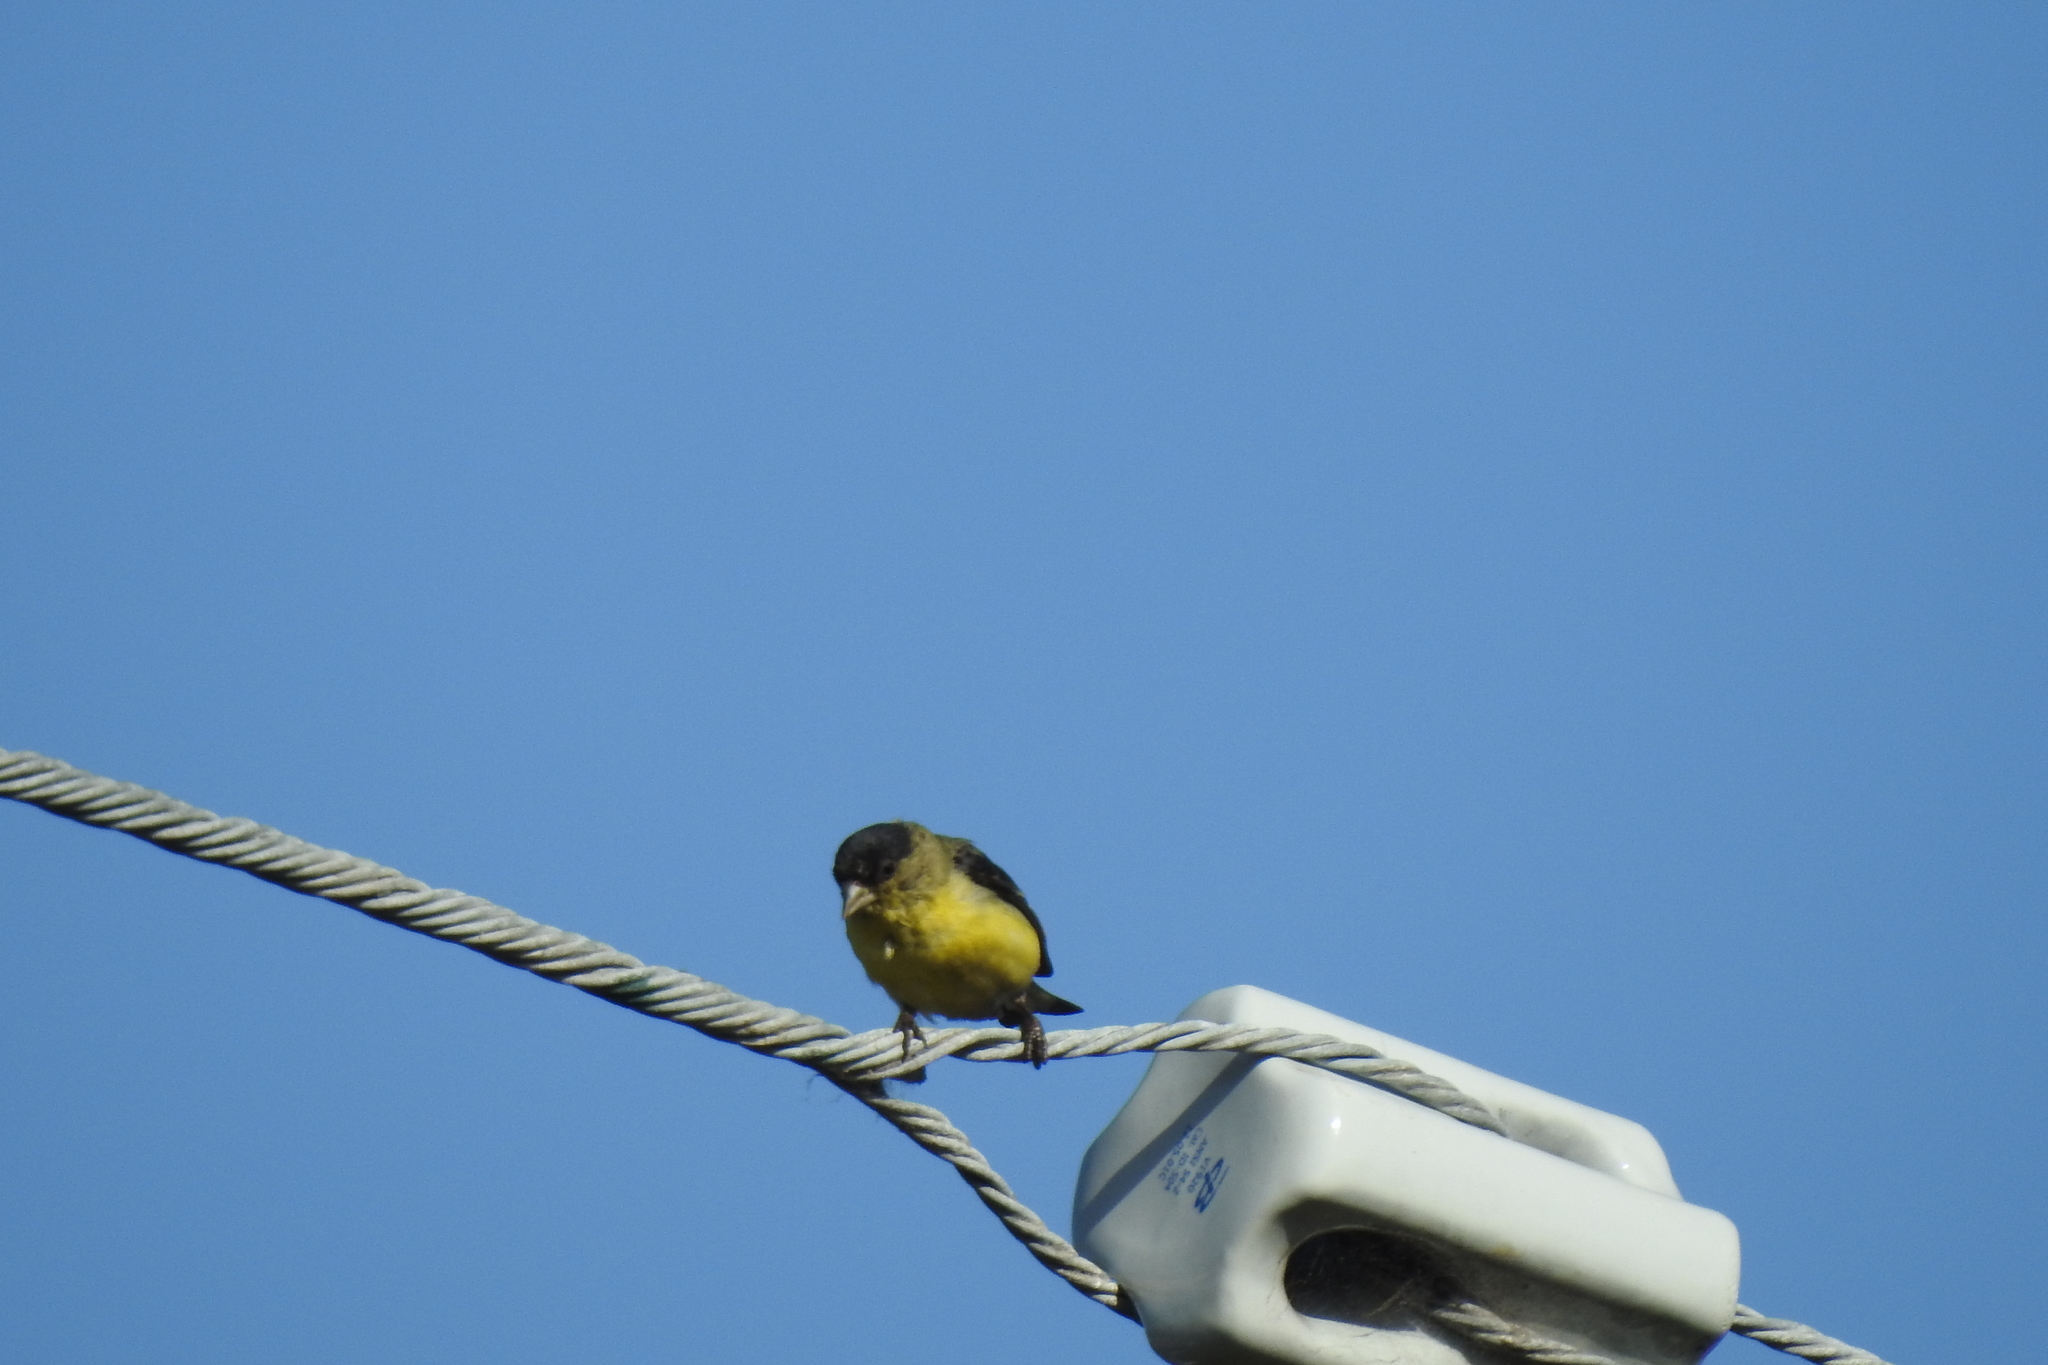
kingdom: Animalia
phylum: Chordata
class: Aves
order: Passeriformes
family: Fringillidae
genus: Spinus
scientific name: Spinus psaltria
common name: Lesser goldfinch
